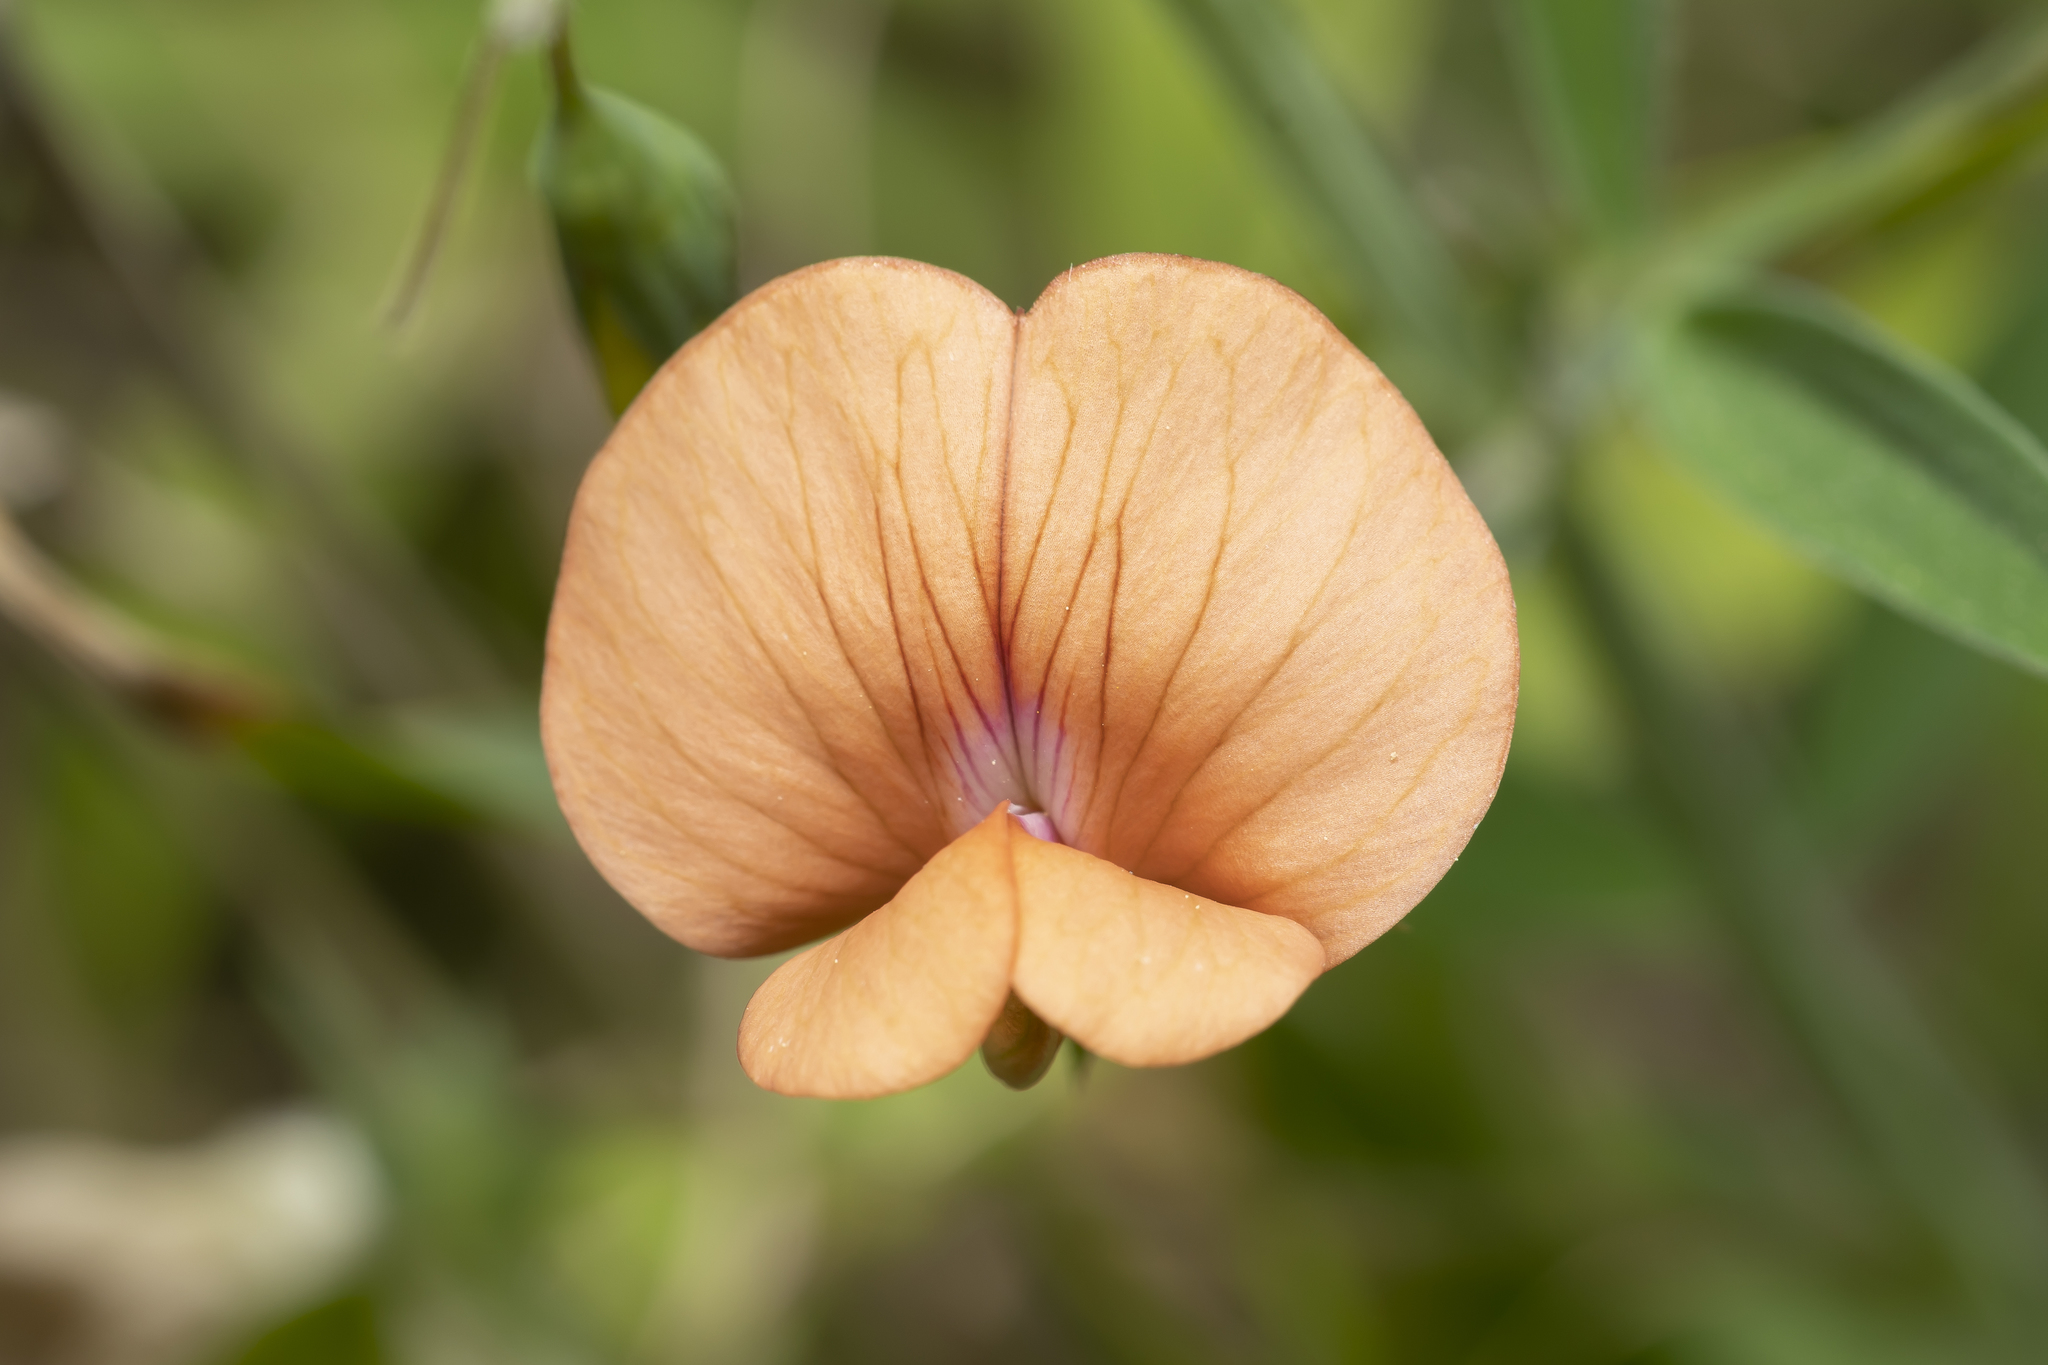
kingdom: Plantae
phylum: Tracheophyta
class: Magnoliopsida
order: Fabales
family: Fabaceae
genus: Lathyrus
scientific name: Lathyrus blepharicarpos
